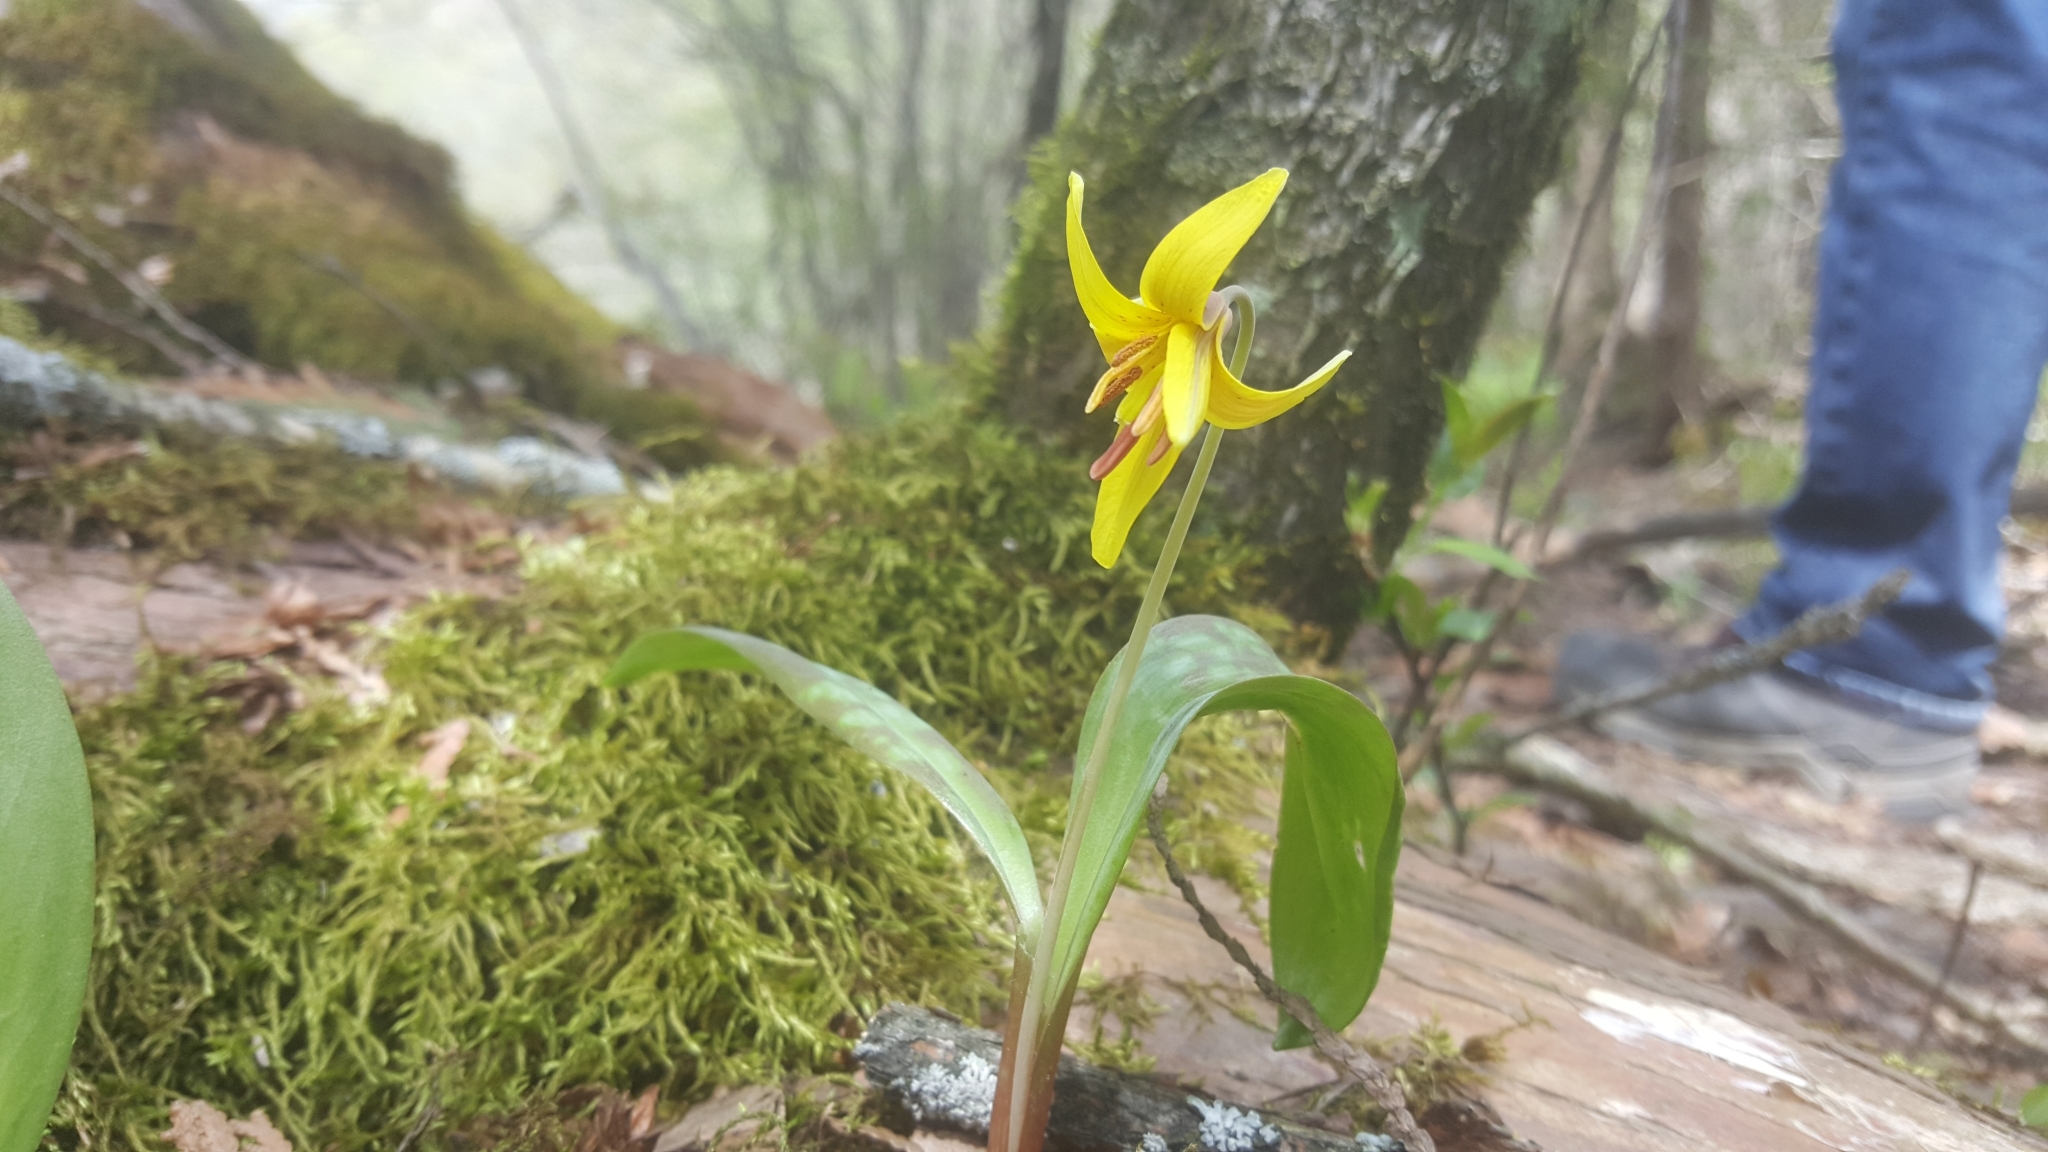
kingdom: Plantae
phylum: Tracheophyta
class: Liliopsida
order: Liliales
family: Liliaceae
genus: Erythronium
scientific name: Erythronium americanum
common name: Yellow adder's-tongue
